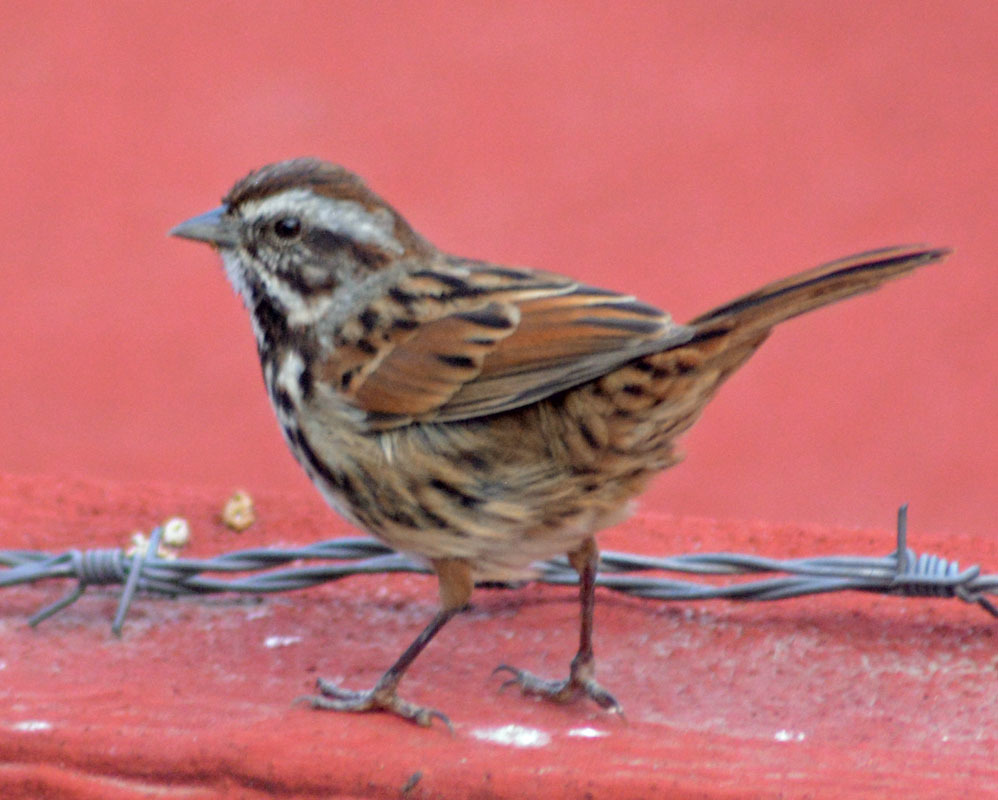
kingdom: Animalia
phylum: Chordata
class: Aves
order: Passeriformes
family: Passerellidae
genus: Melospiza
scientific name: Melospiza melodia
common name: Song sparrow
